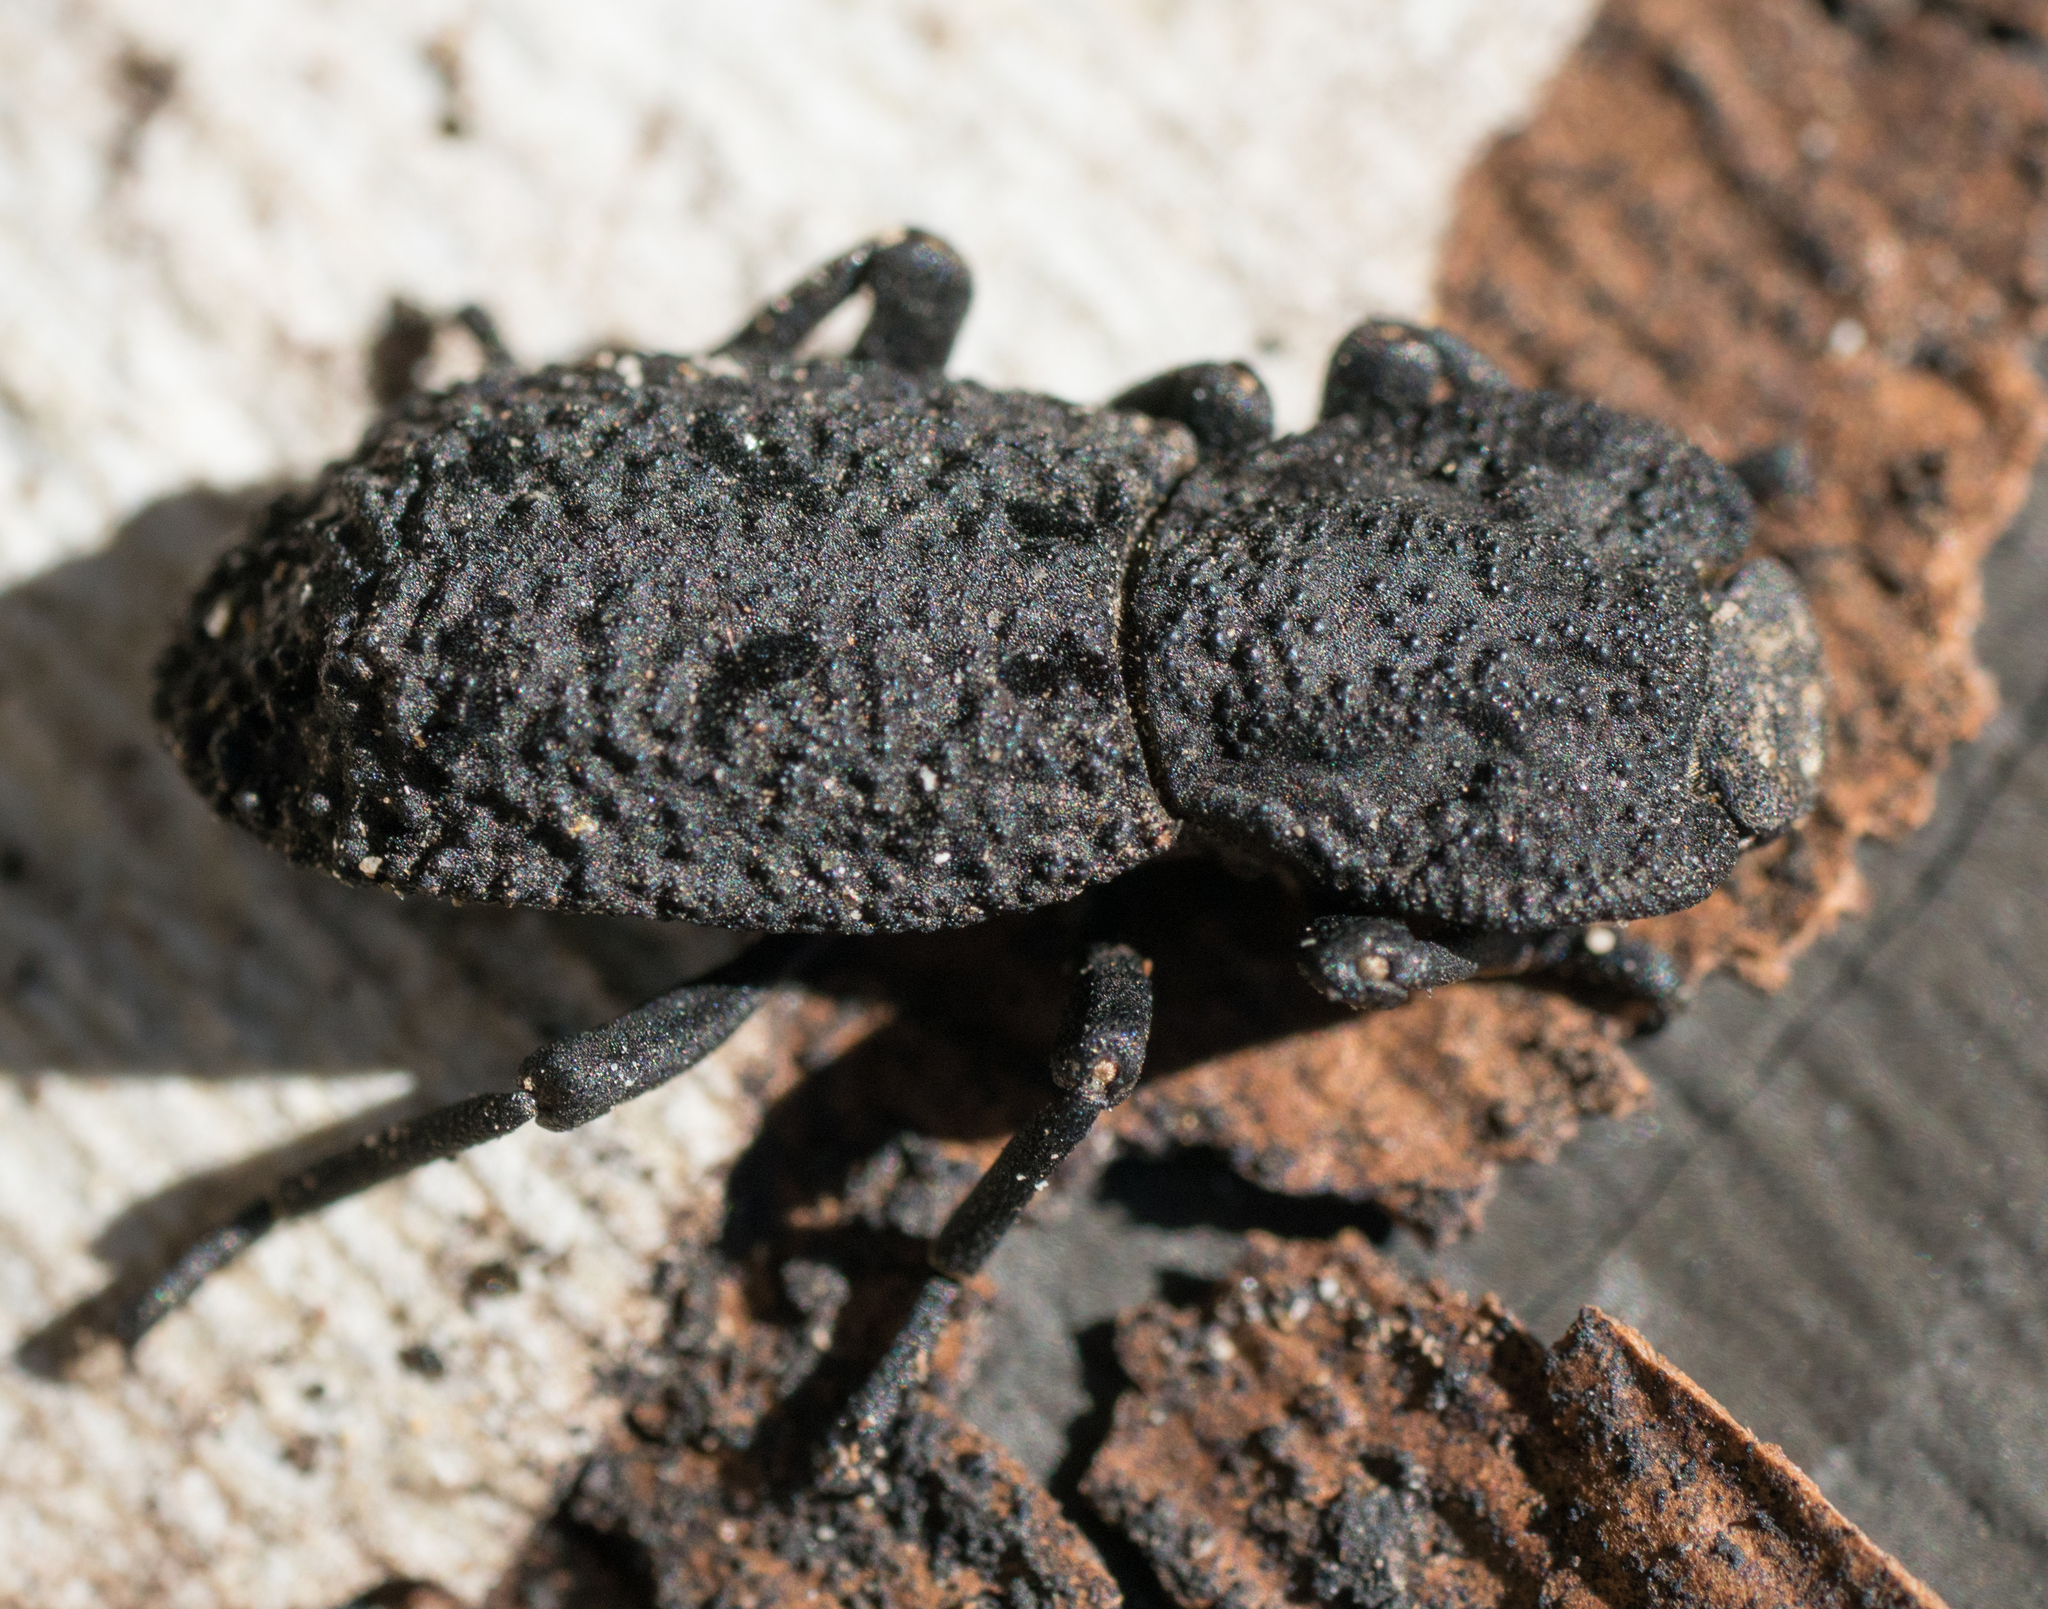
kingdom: Animalia
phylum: Arthropoda
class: Insecta
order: Coleoptera
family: Zopheridae
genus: Phloeodes
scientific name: Phloeodes diabolicus
